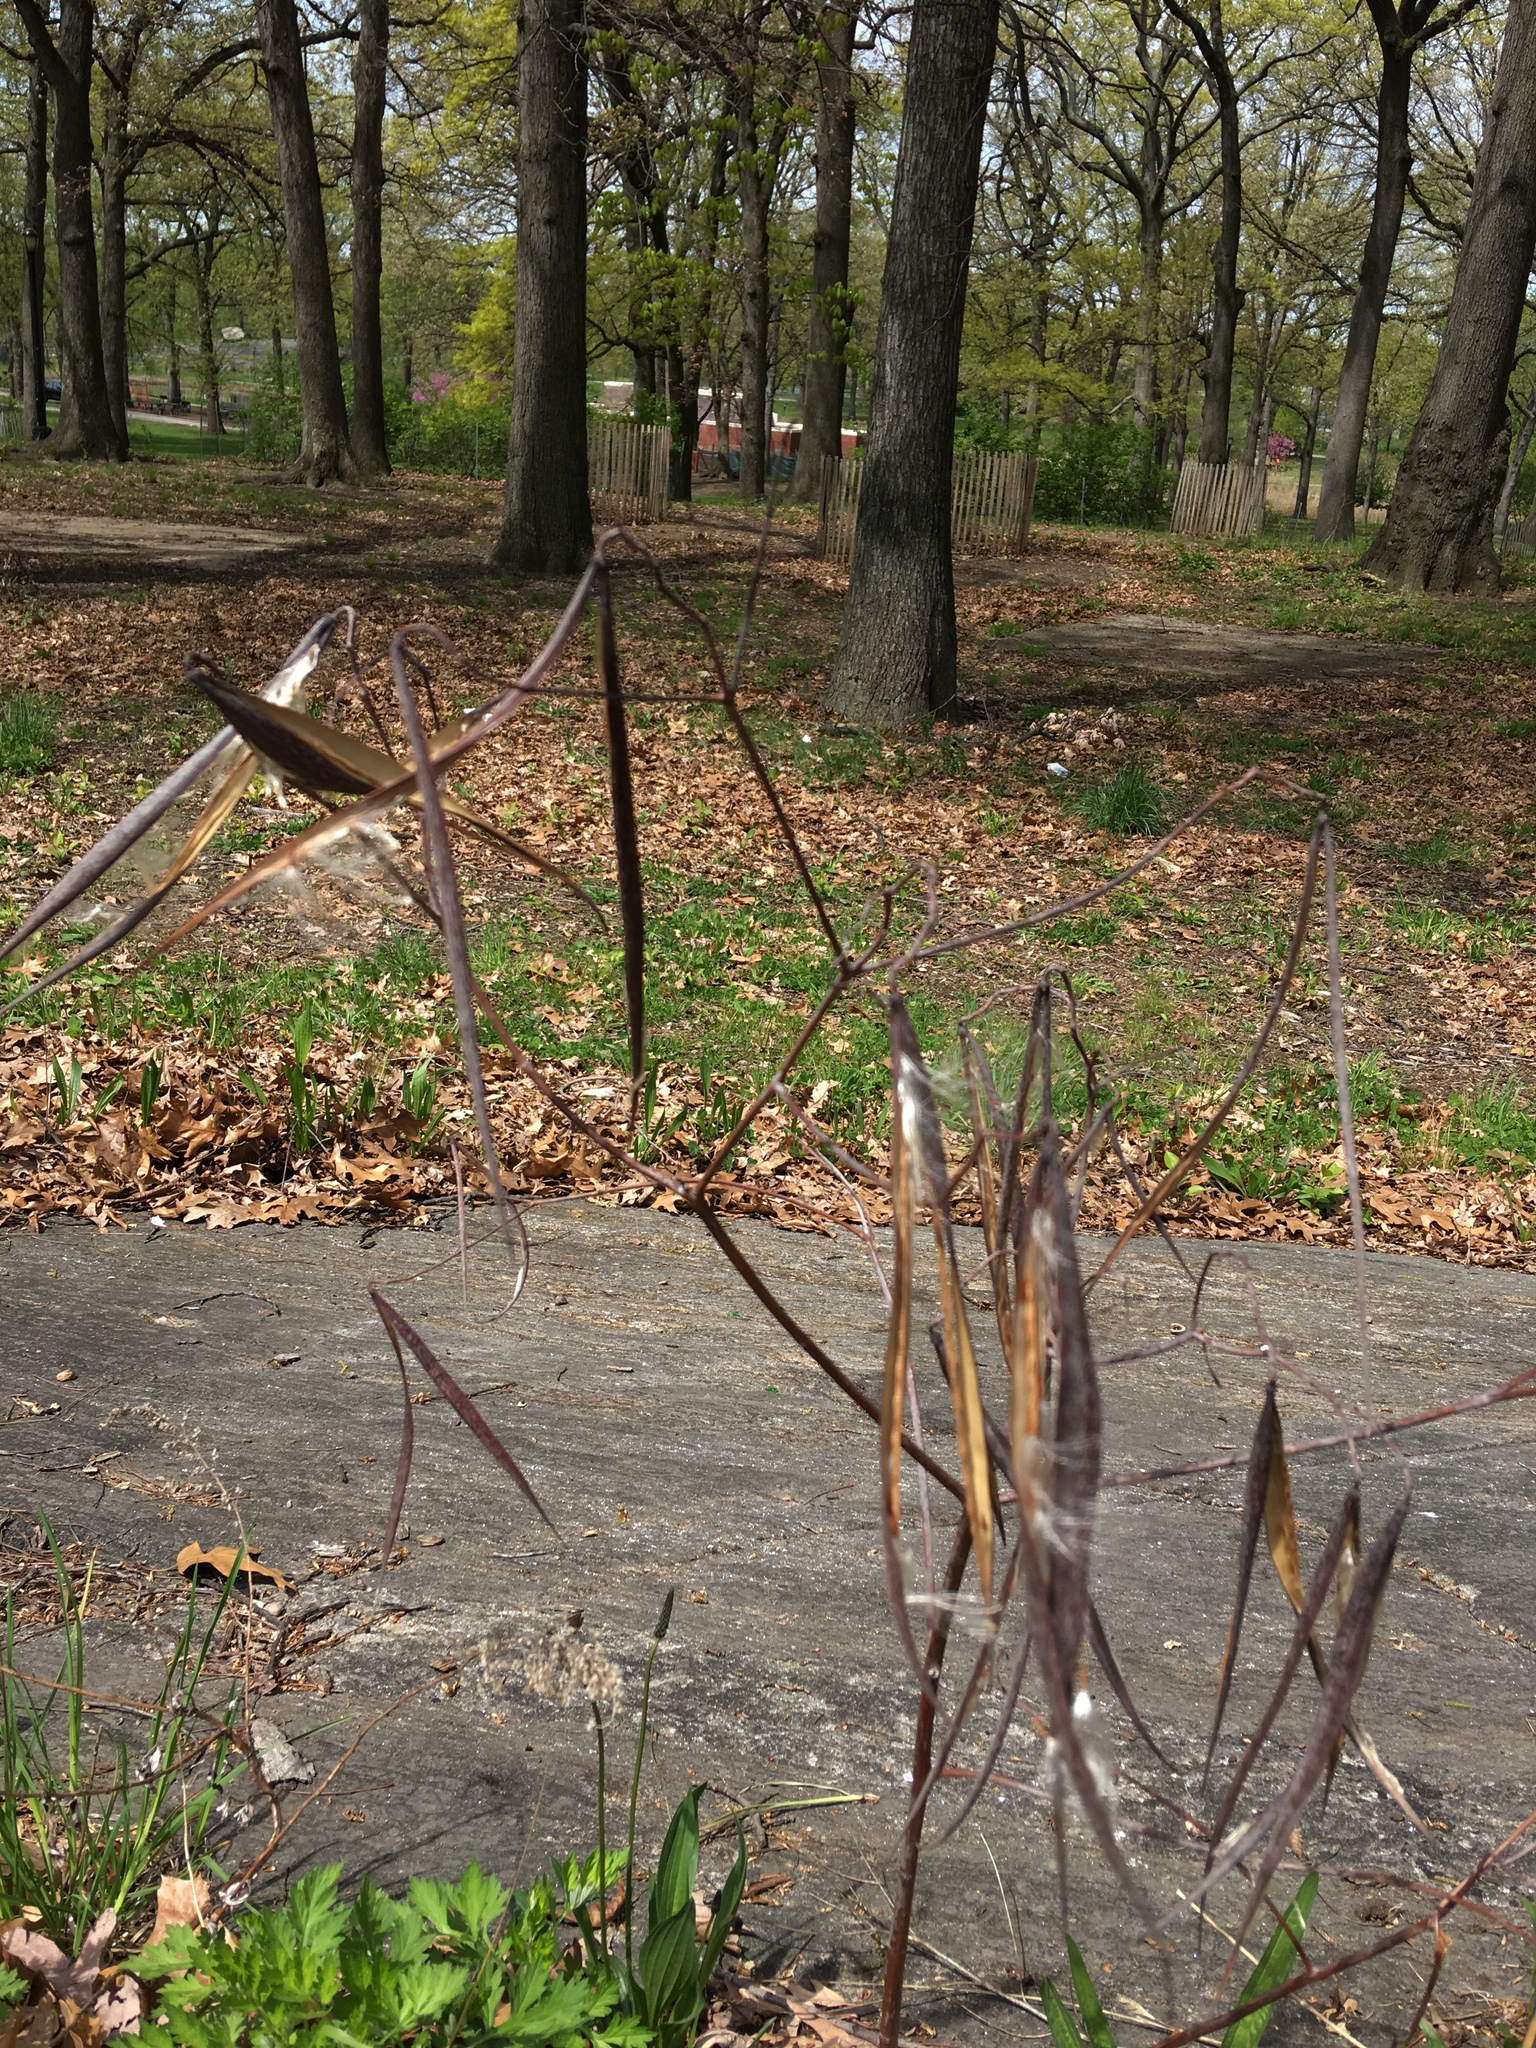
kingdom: Plantae
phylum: Tracheophyta
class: Magnoliopsida
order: Gentianales
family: Apocynaceae
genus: Apocynum
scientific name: Apocynum cannabinum
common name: Hemp dogbane
